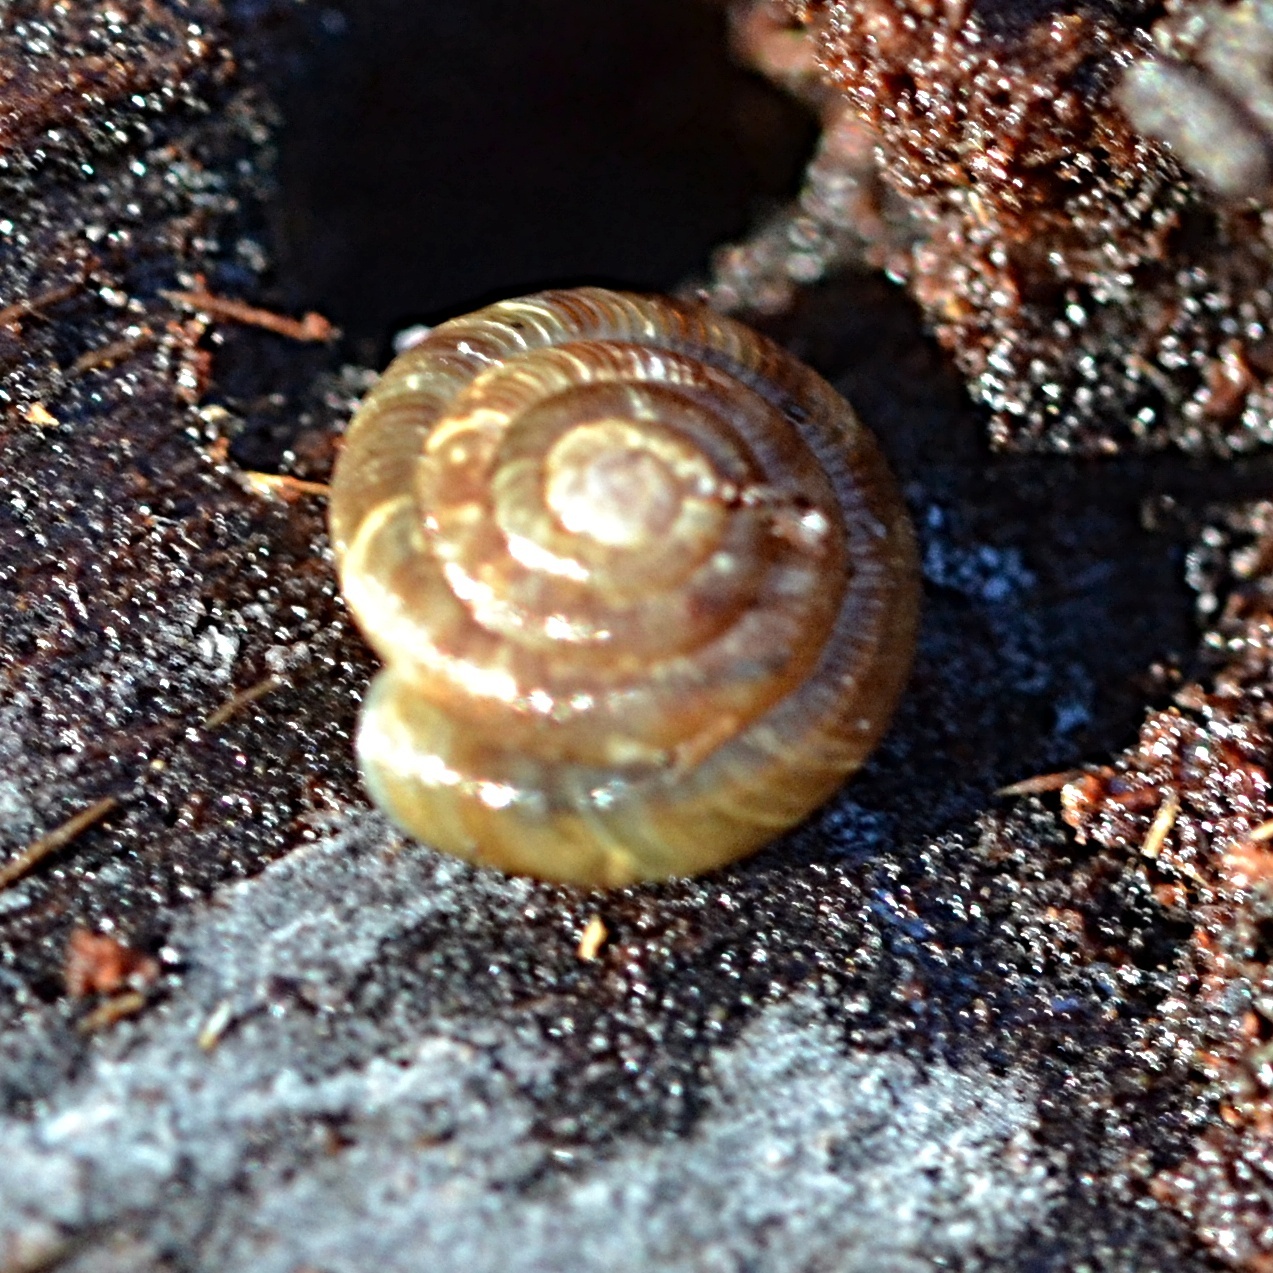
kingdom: Animalia
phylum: Mollusca
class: Gastropoda
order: Stylommatophora
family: Discidae
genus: Discus
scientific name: Discus rotundatus
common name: Rounded snail
